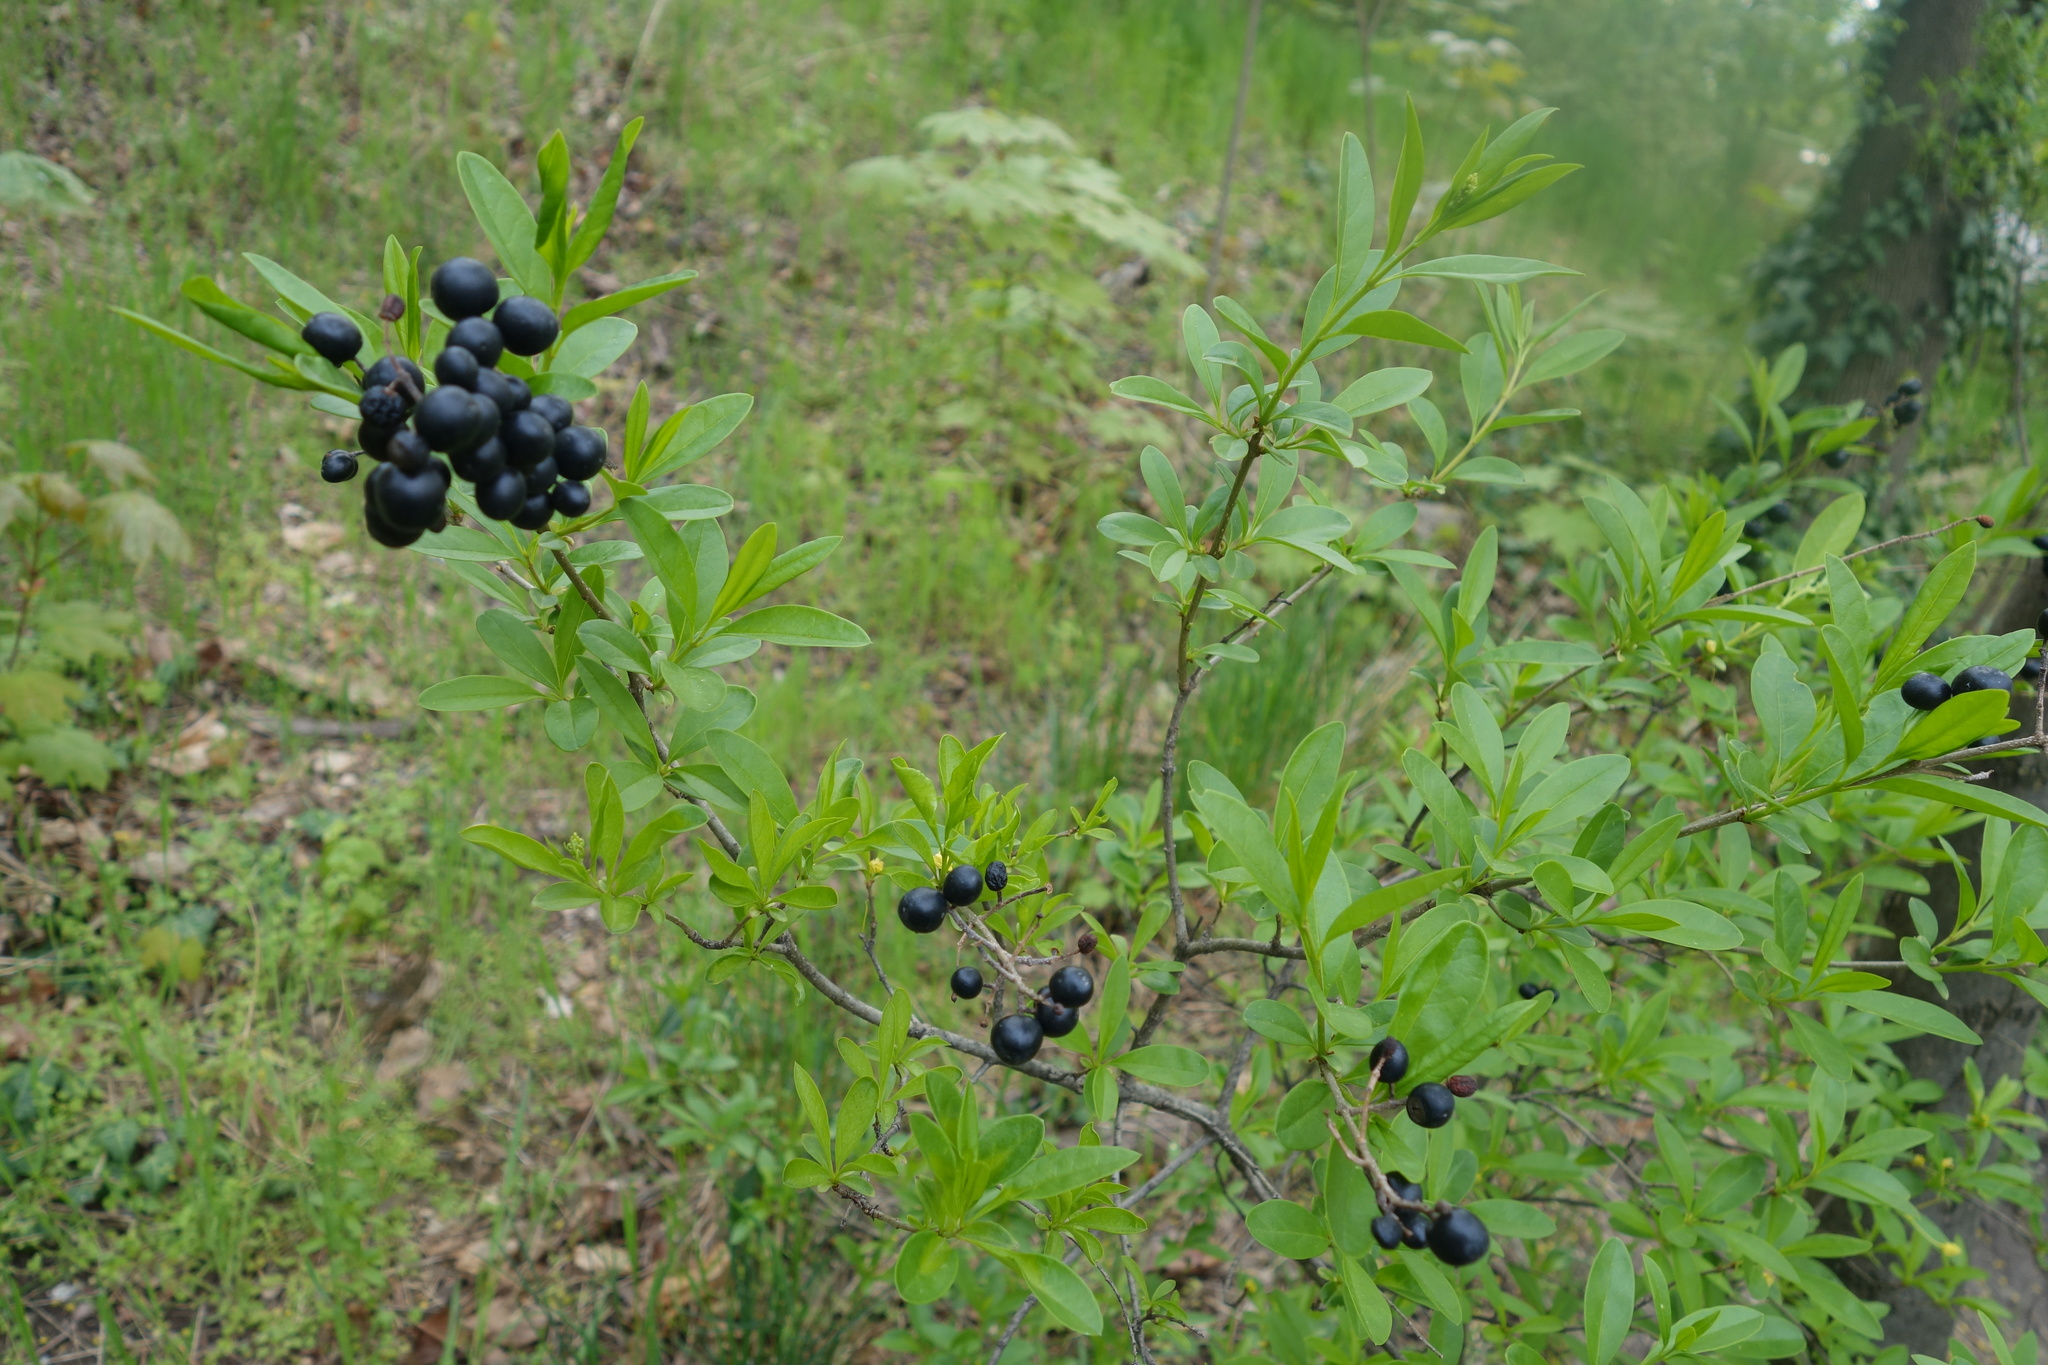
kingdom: Plantae
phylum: Tracheophyta
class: Magnoliopsida
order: Lamiales
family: Oleaceae
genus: Ligustrum
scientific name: Ligustrum vulgare
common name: Wild privet
